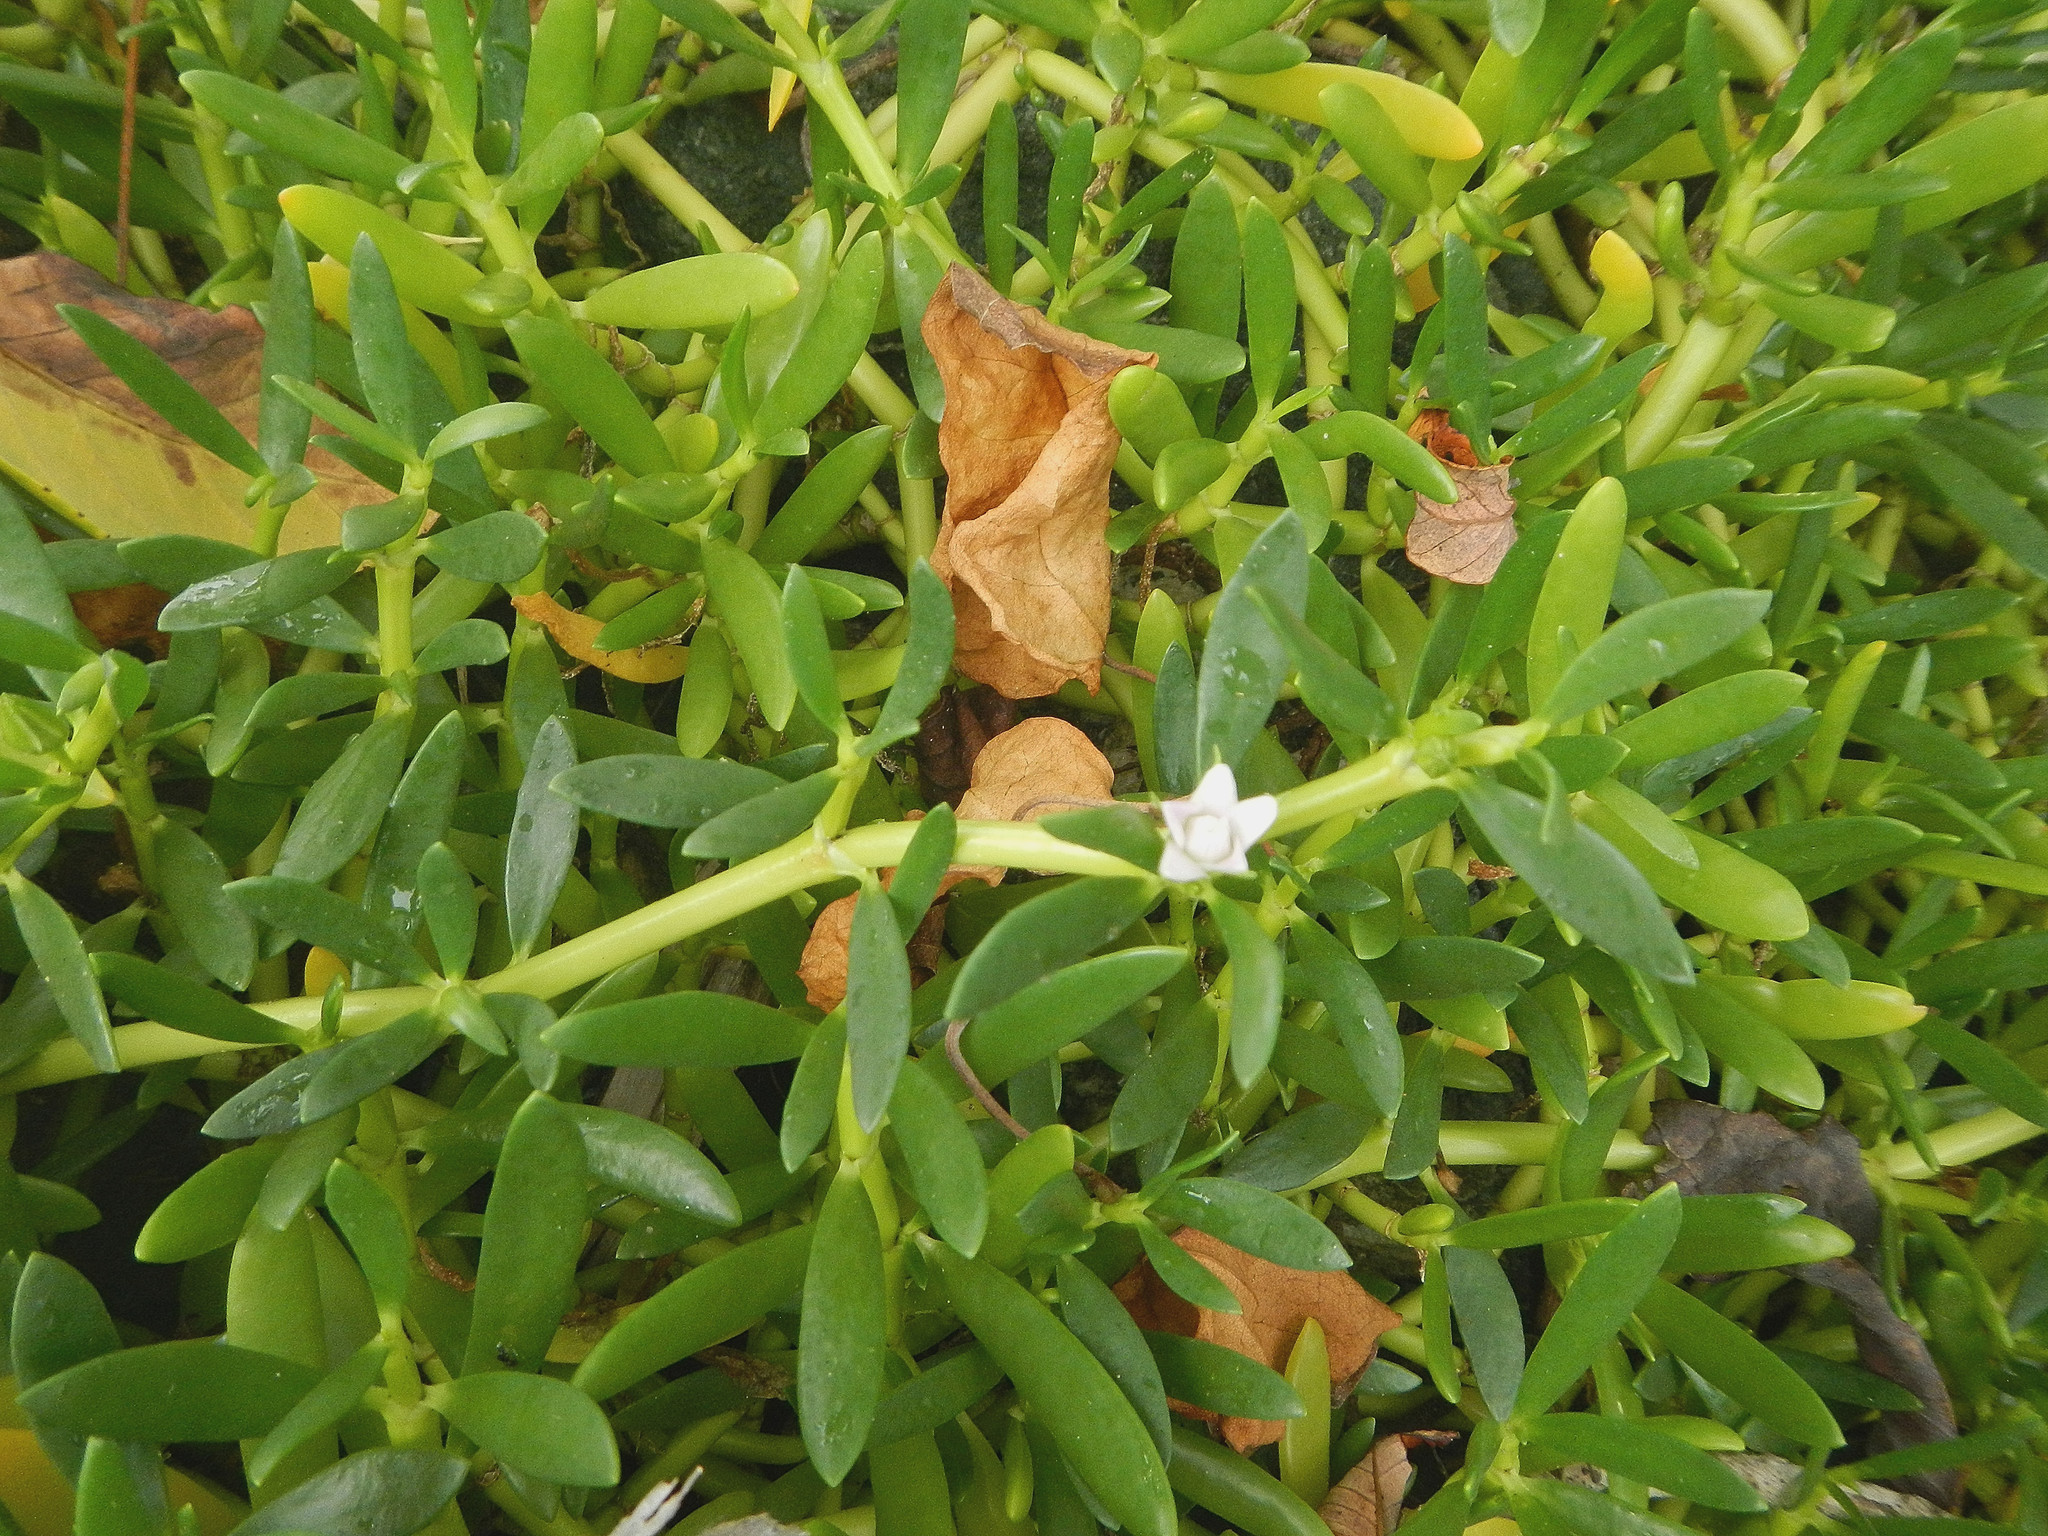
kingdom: Plantae
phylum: Tracheophyta
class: Magnoliopsida
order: Caryophyllales
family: Aizoaceae
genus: Sesuvium
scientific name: Sesuvium portulacastrum
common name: Sea-purslane
